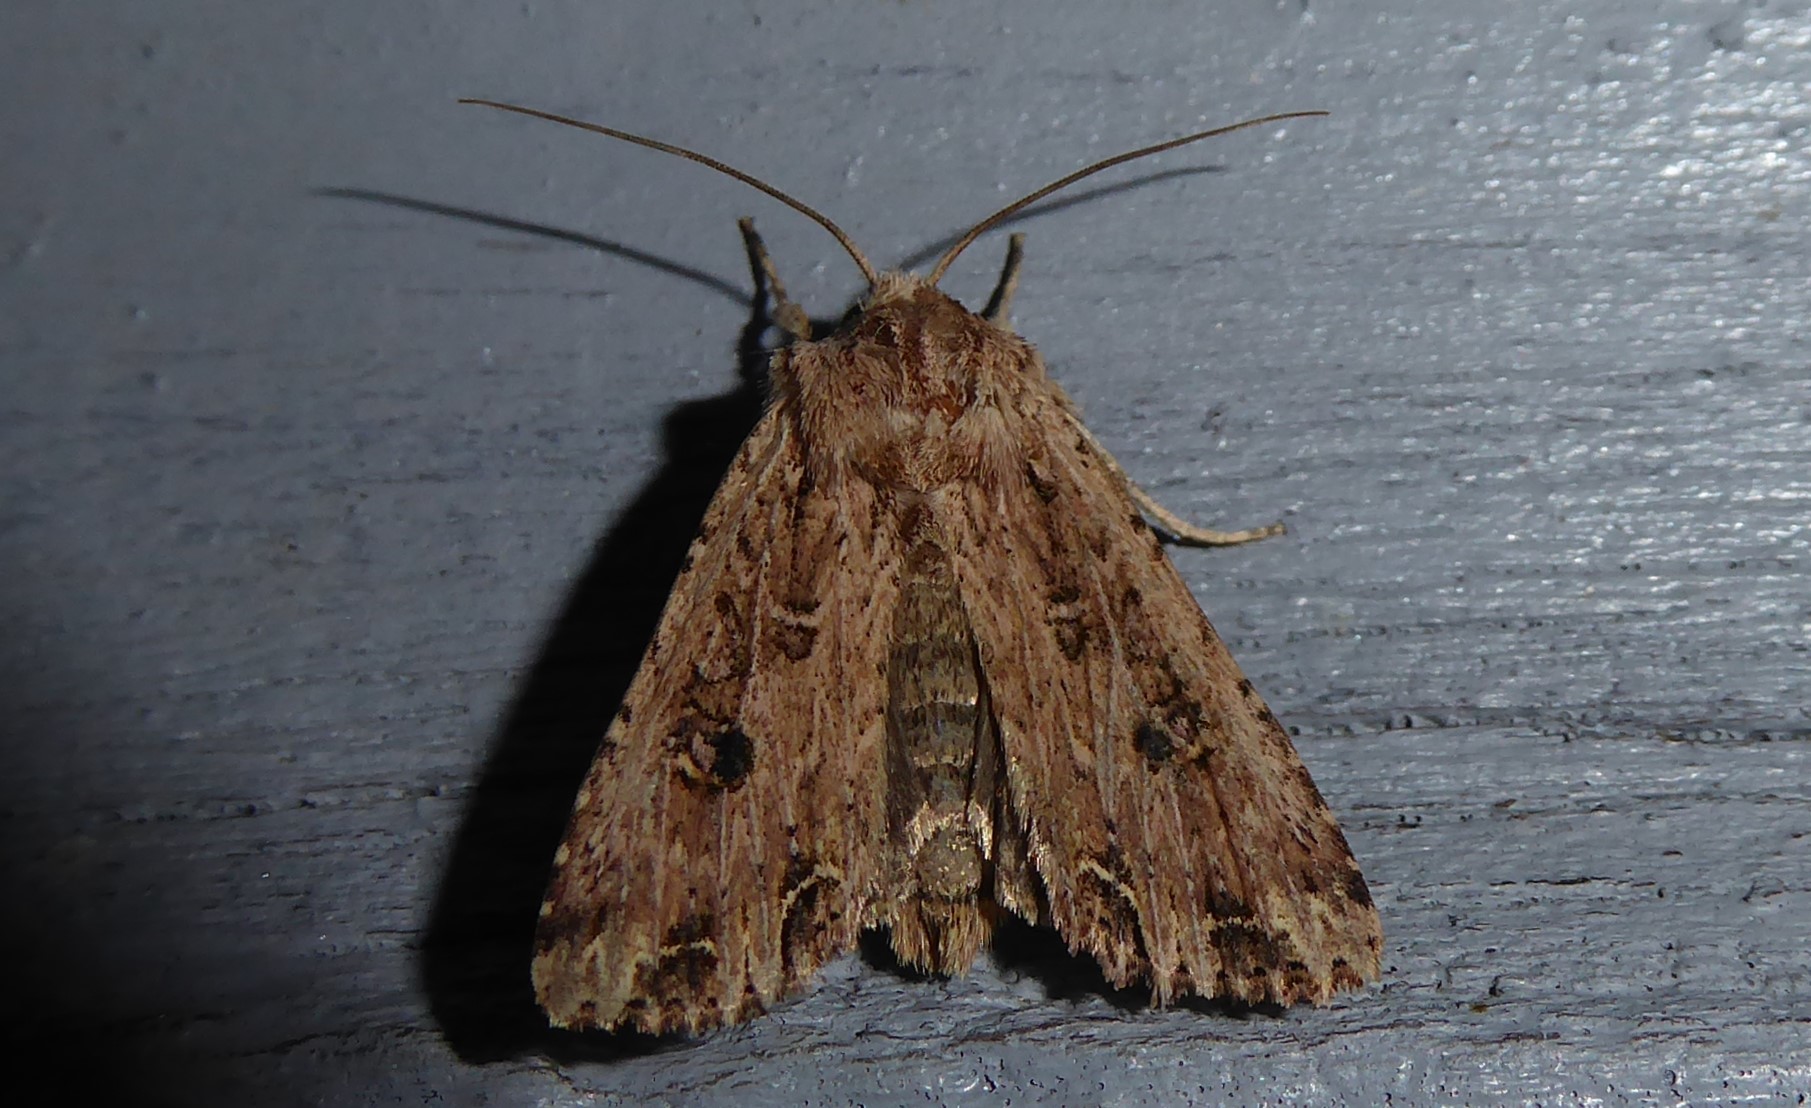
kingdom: Animalia
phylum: Arthropoda
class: Insecta
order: Lepidoptera
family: Noctuidae
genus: Ichneutica
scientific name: Ichneutica lignana
